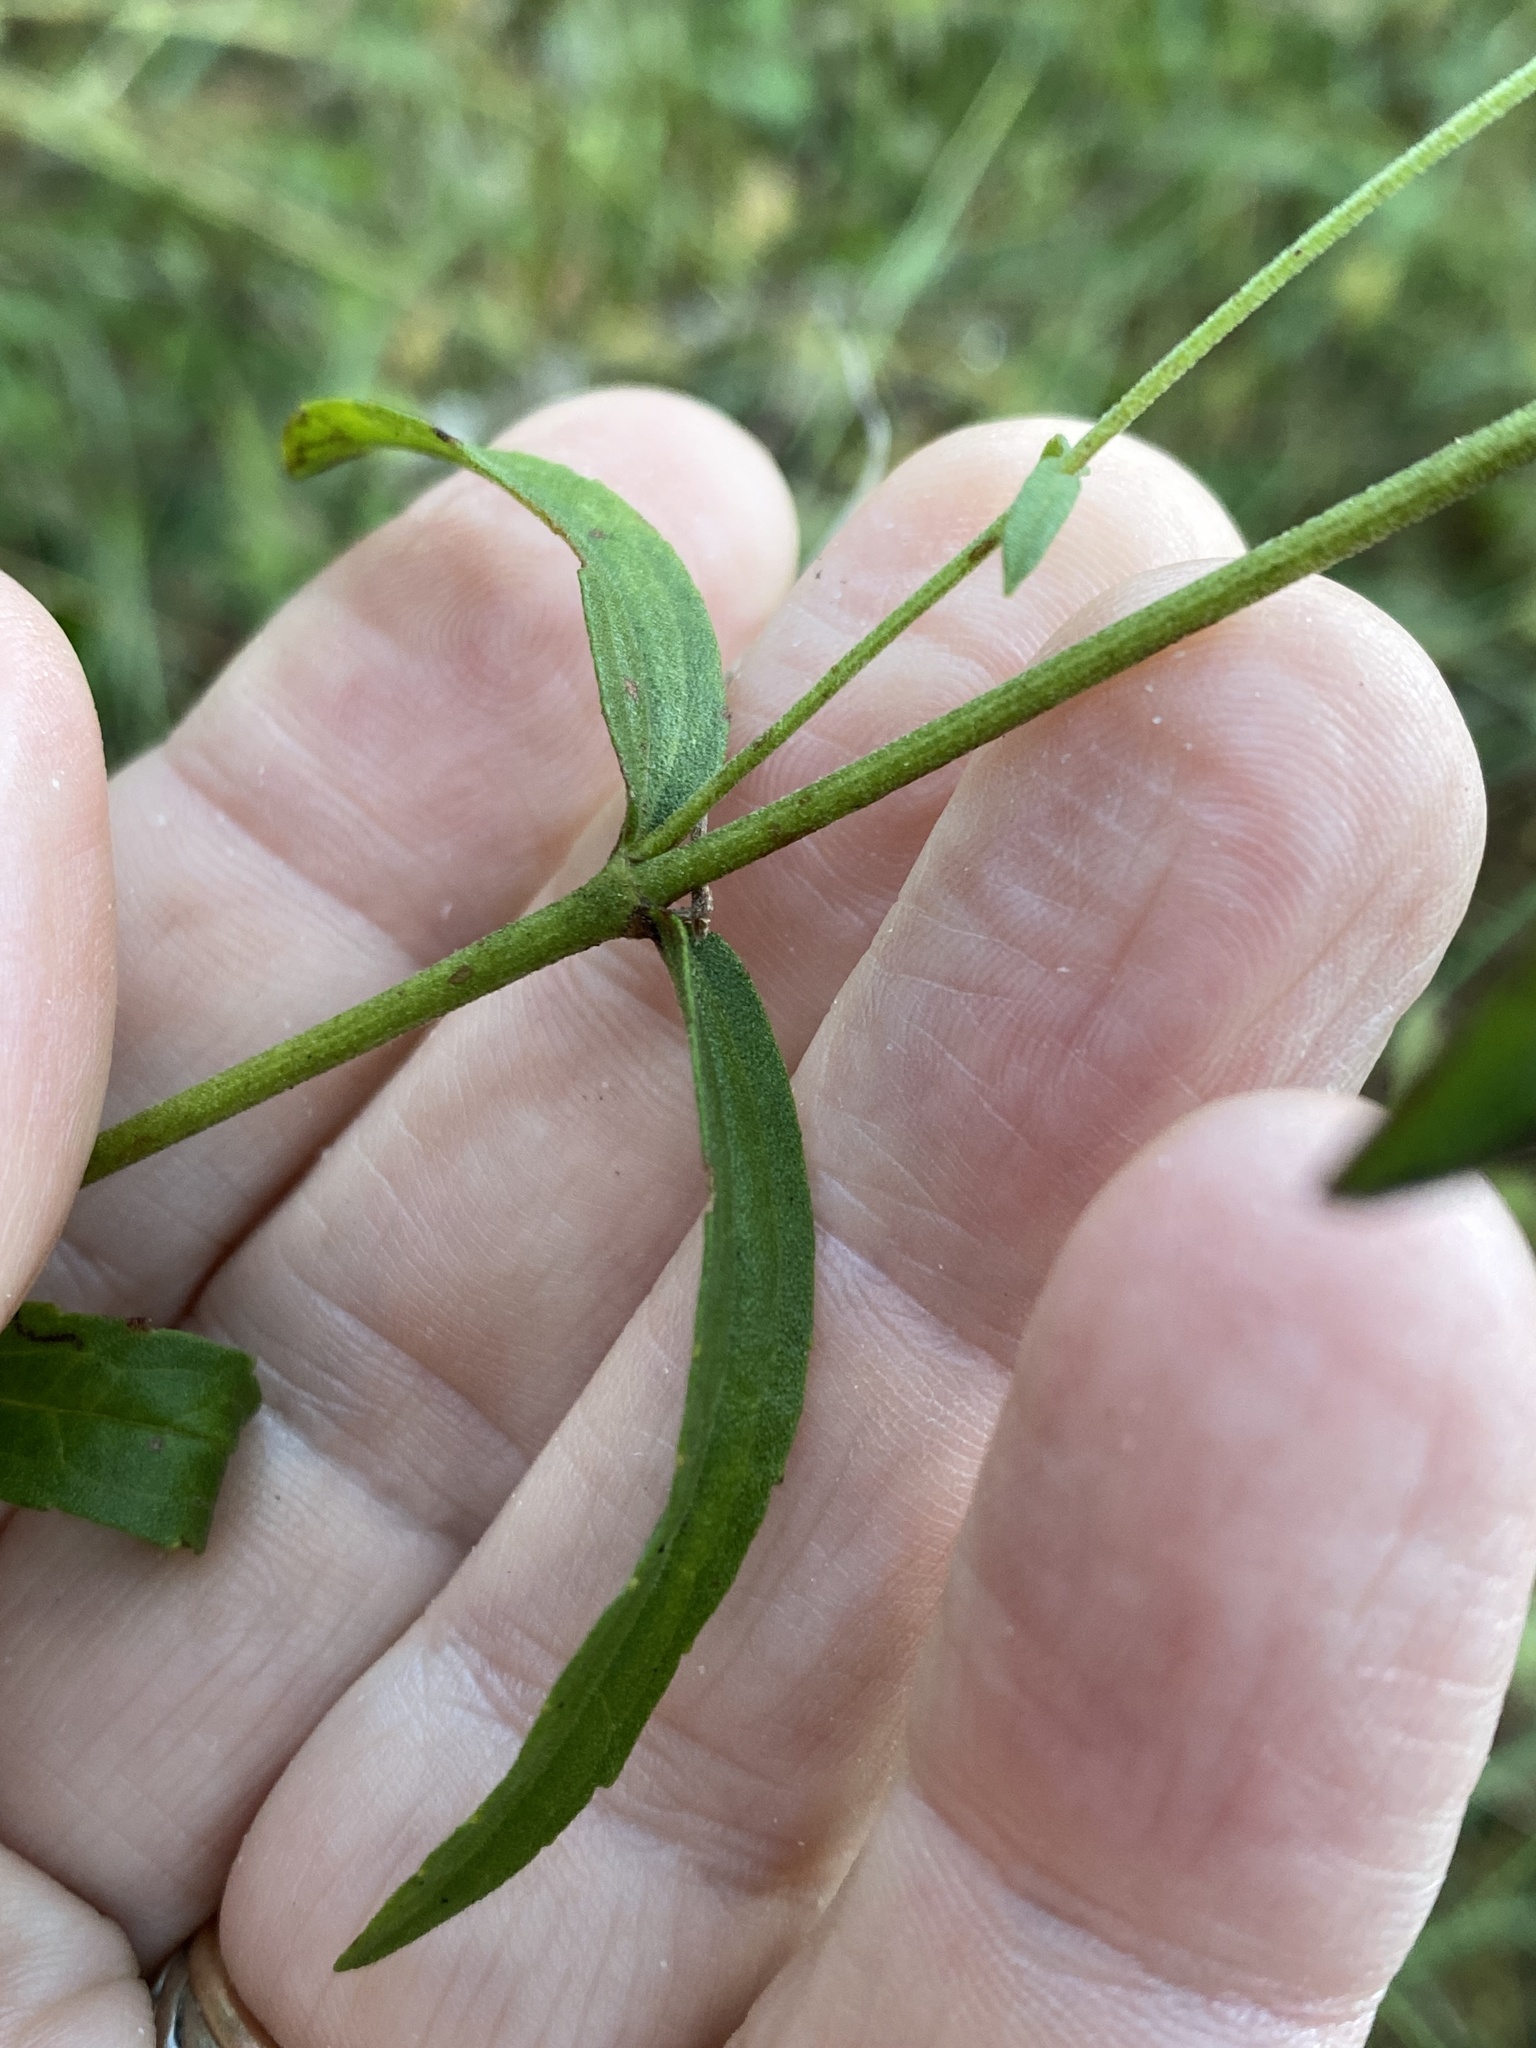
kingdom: Plantae
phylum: Tracheophyta
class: Magnoliopsida
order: Asterales
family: Asteraceae
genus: Eupatorium
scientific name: Eupatorium leucolepis
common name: Justiceweed
